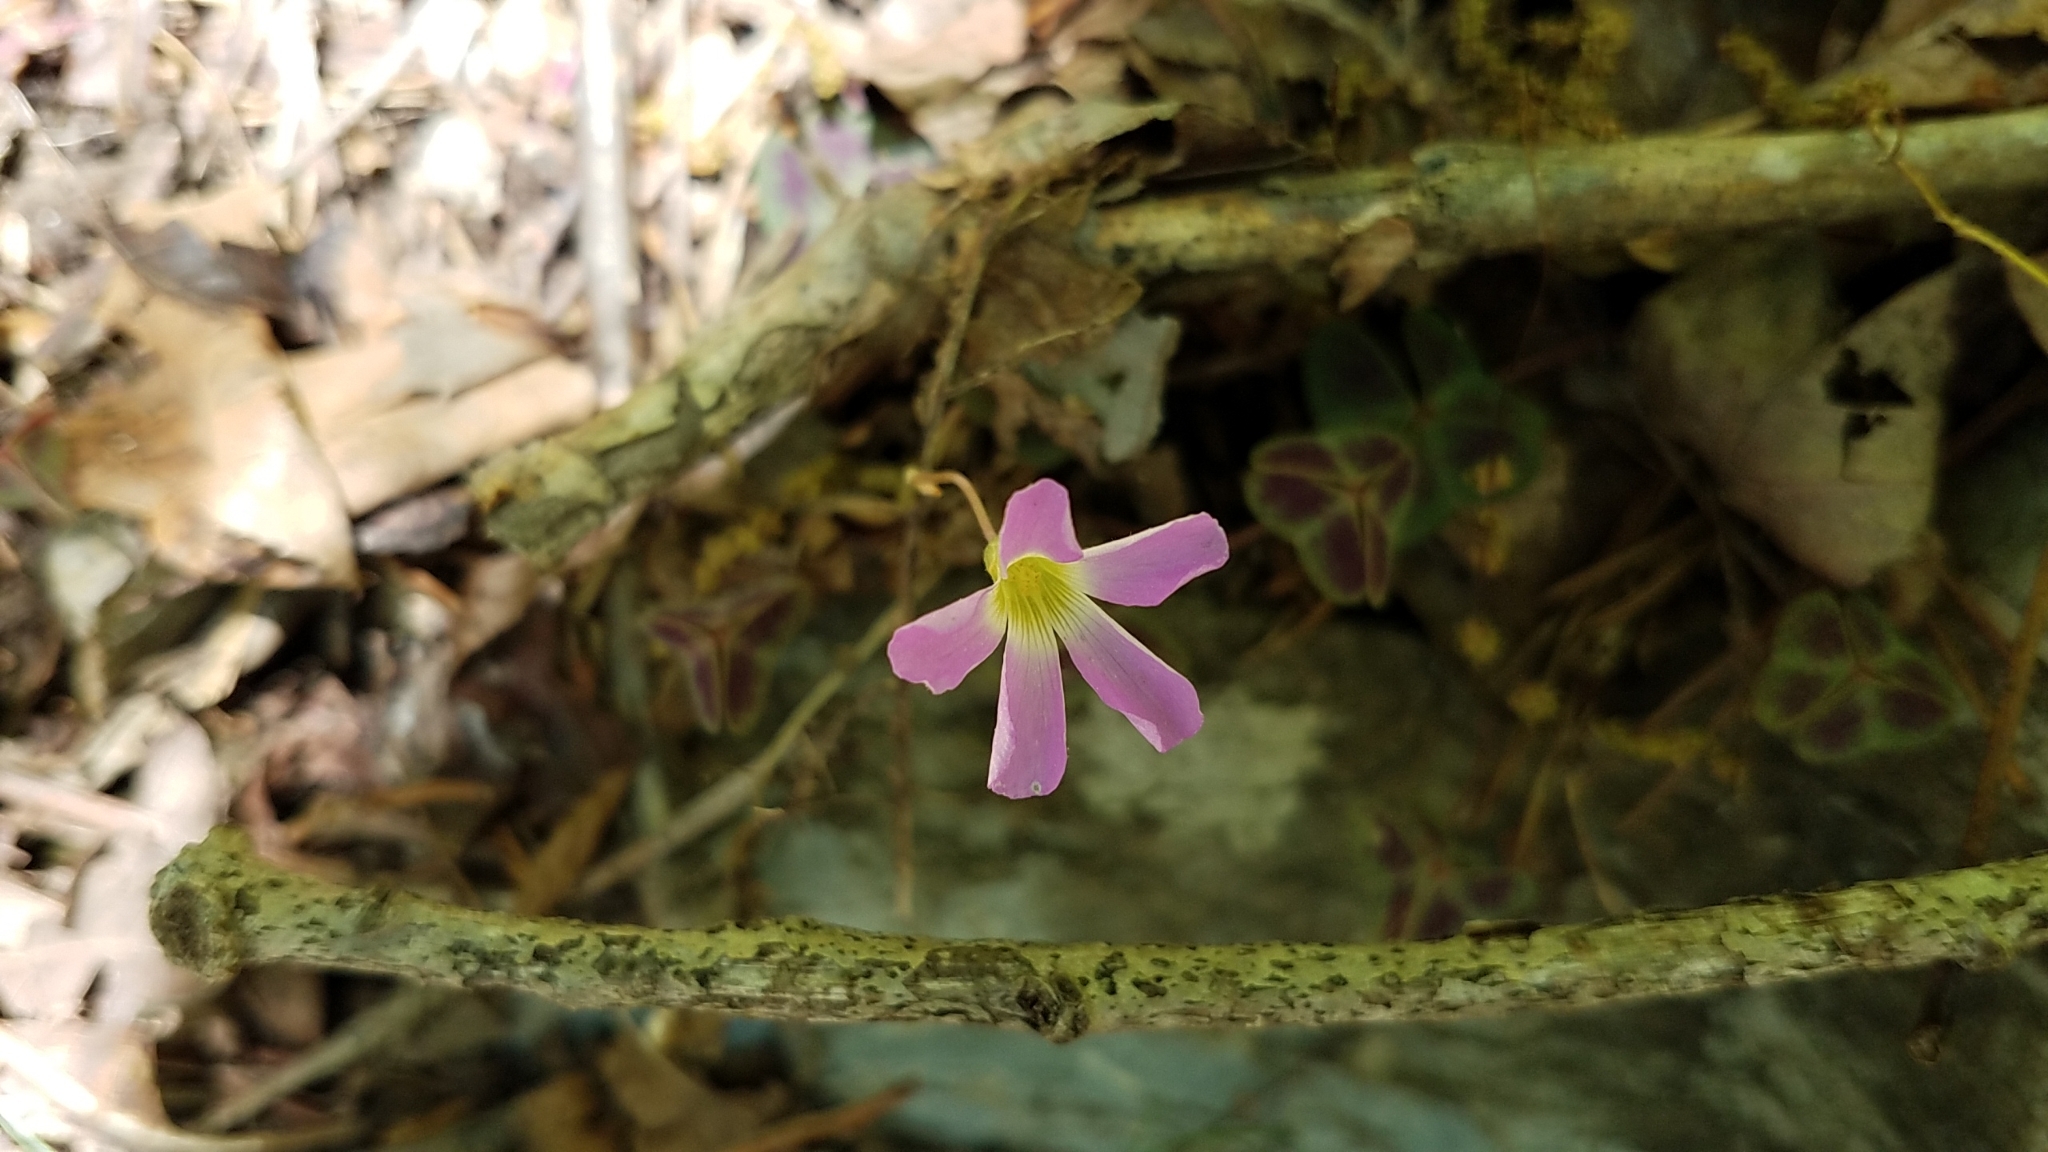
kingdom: Plantae
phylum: Tracheophyta
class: Magnoliopsida
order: Oxalidales
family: Oxalidaceae
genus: Oxalis
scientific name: Oxalis violacea
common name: Violet wood-sorrel
